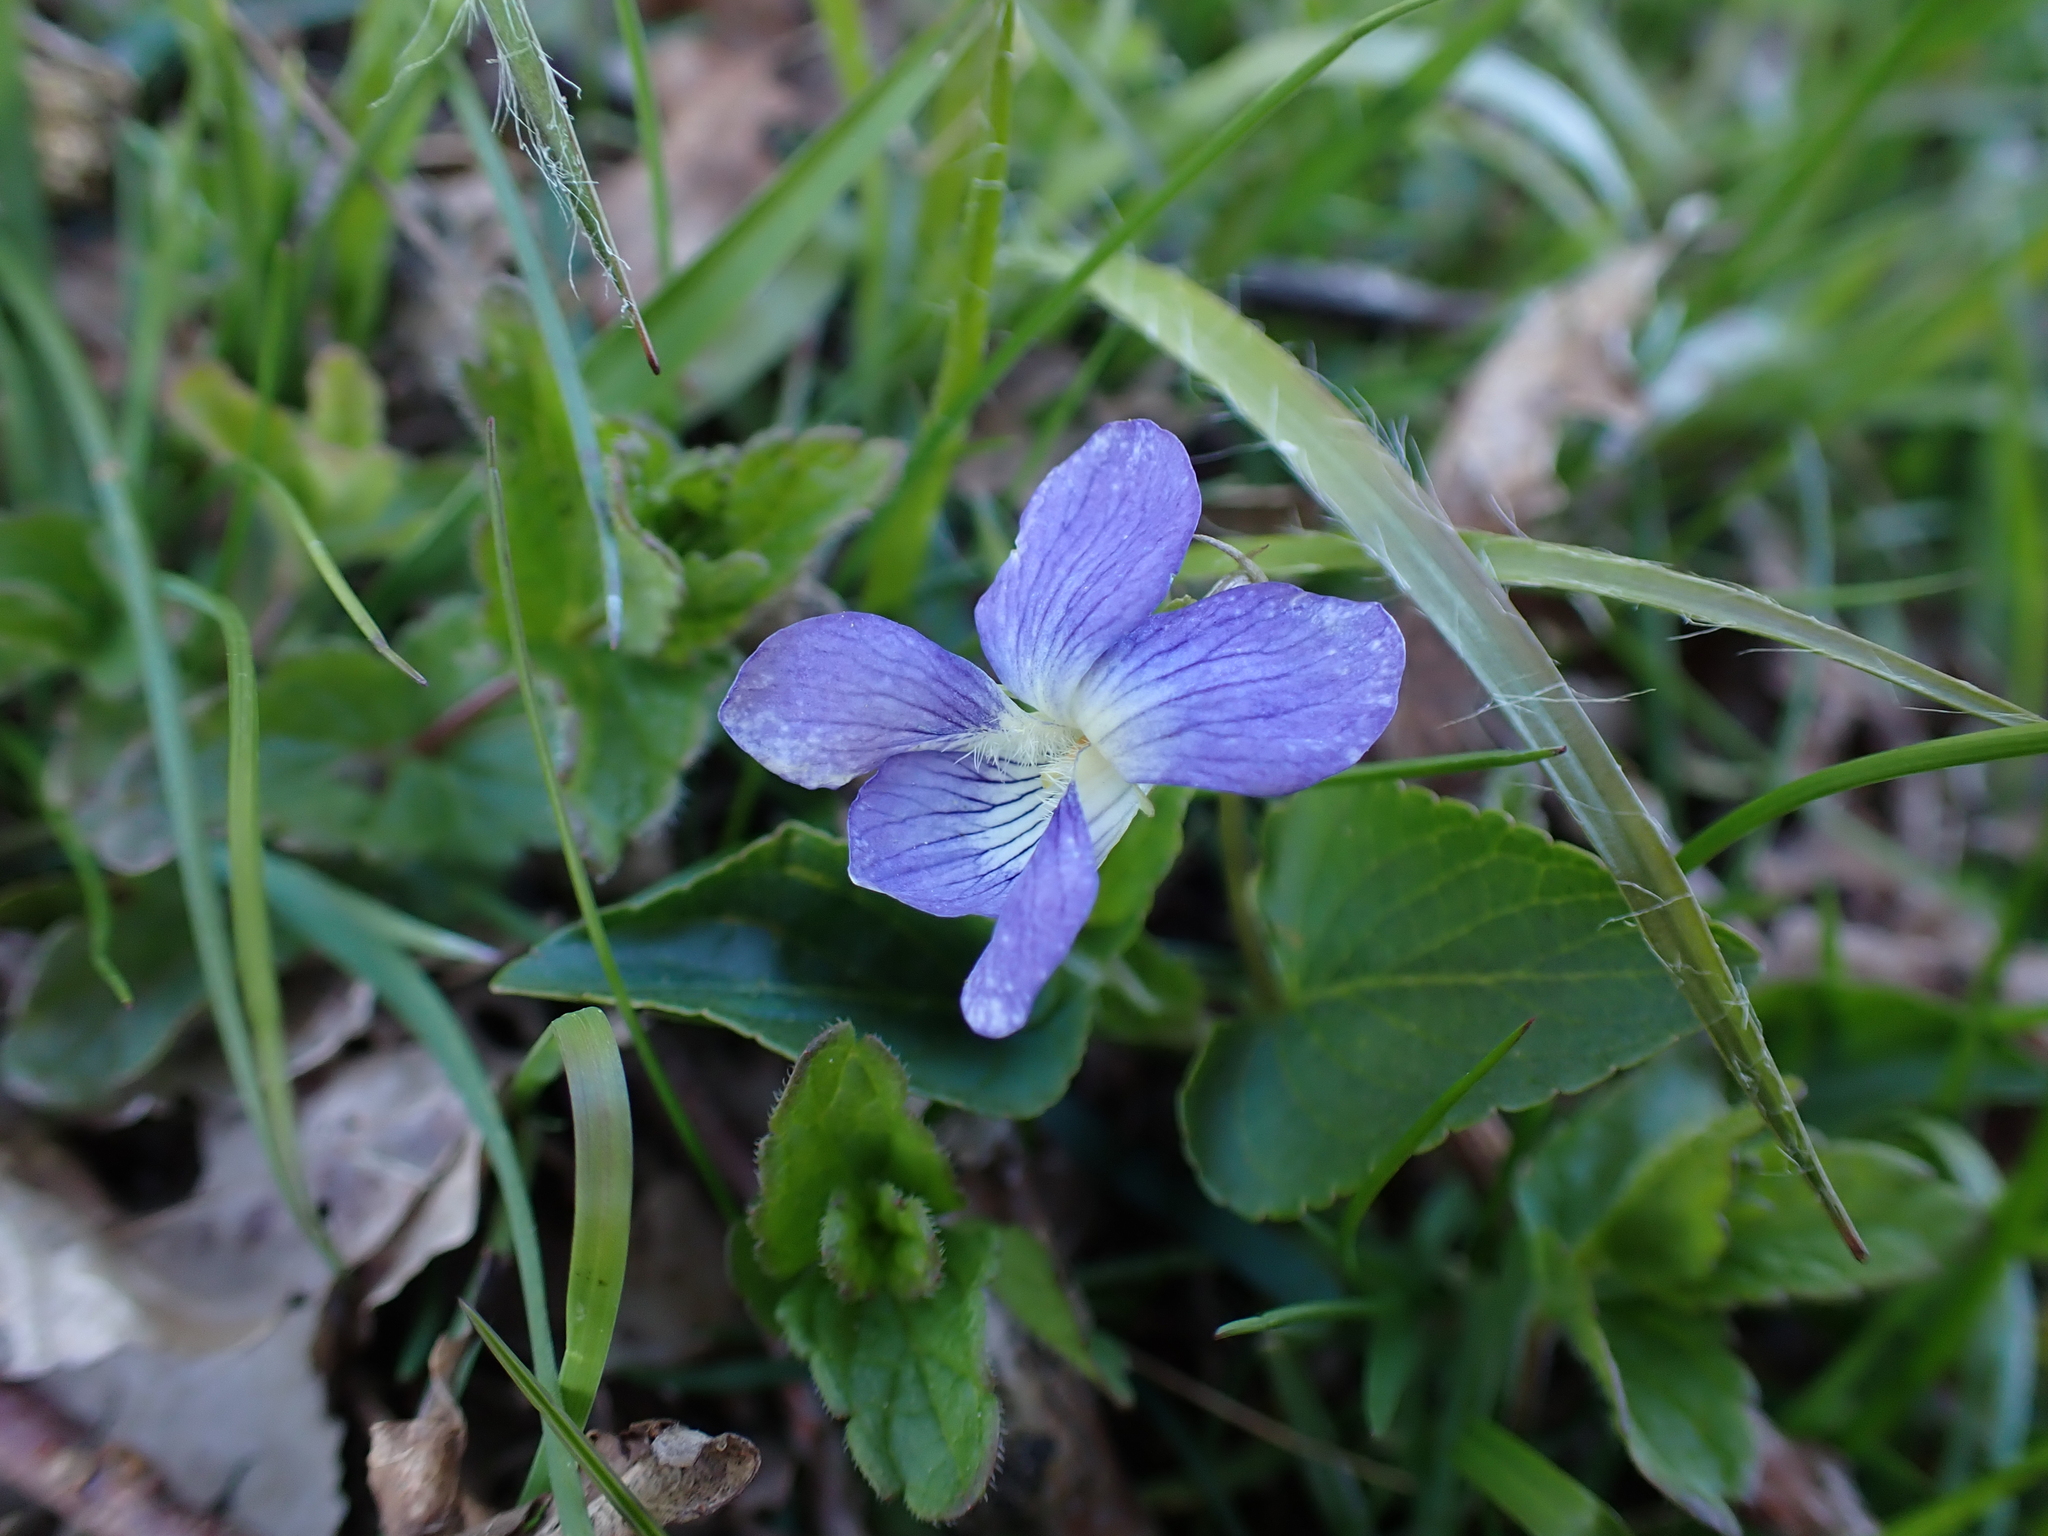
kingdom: Plantae
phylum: Tracheophyta
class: Magnoliopsida
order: Malpighiales
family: Violaceae
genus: Viola
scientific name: Viola canina
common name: Heath dog-violet
